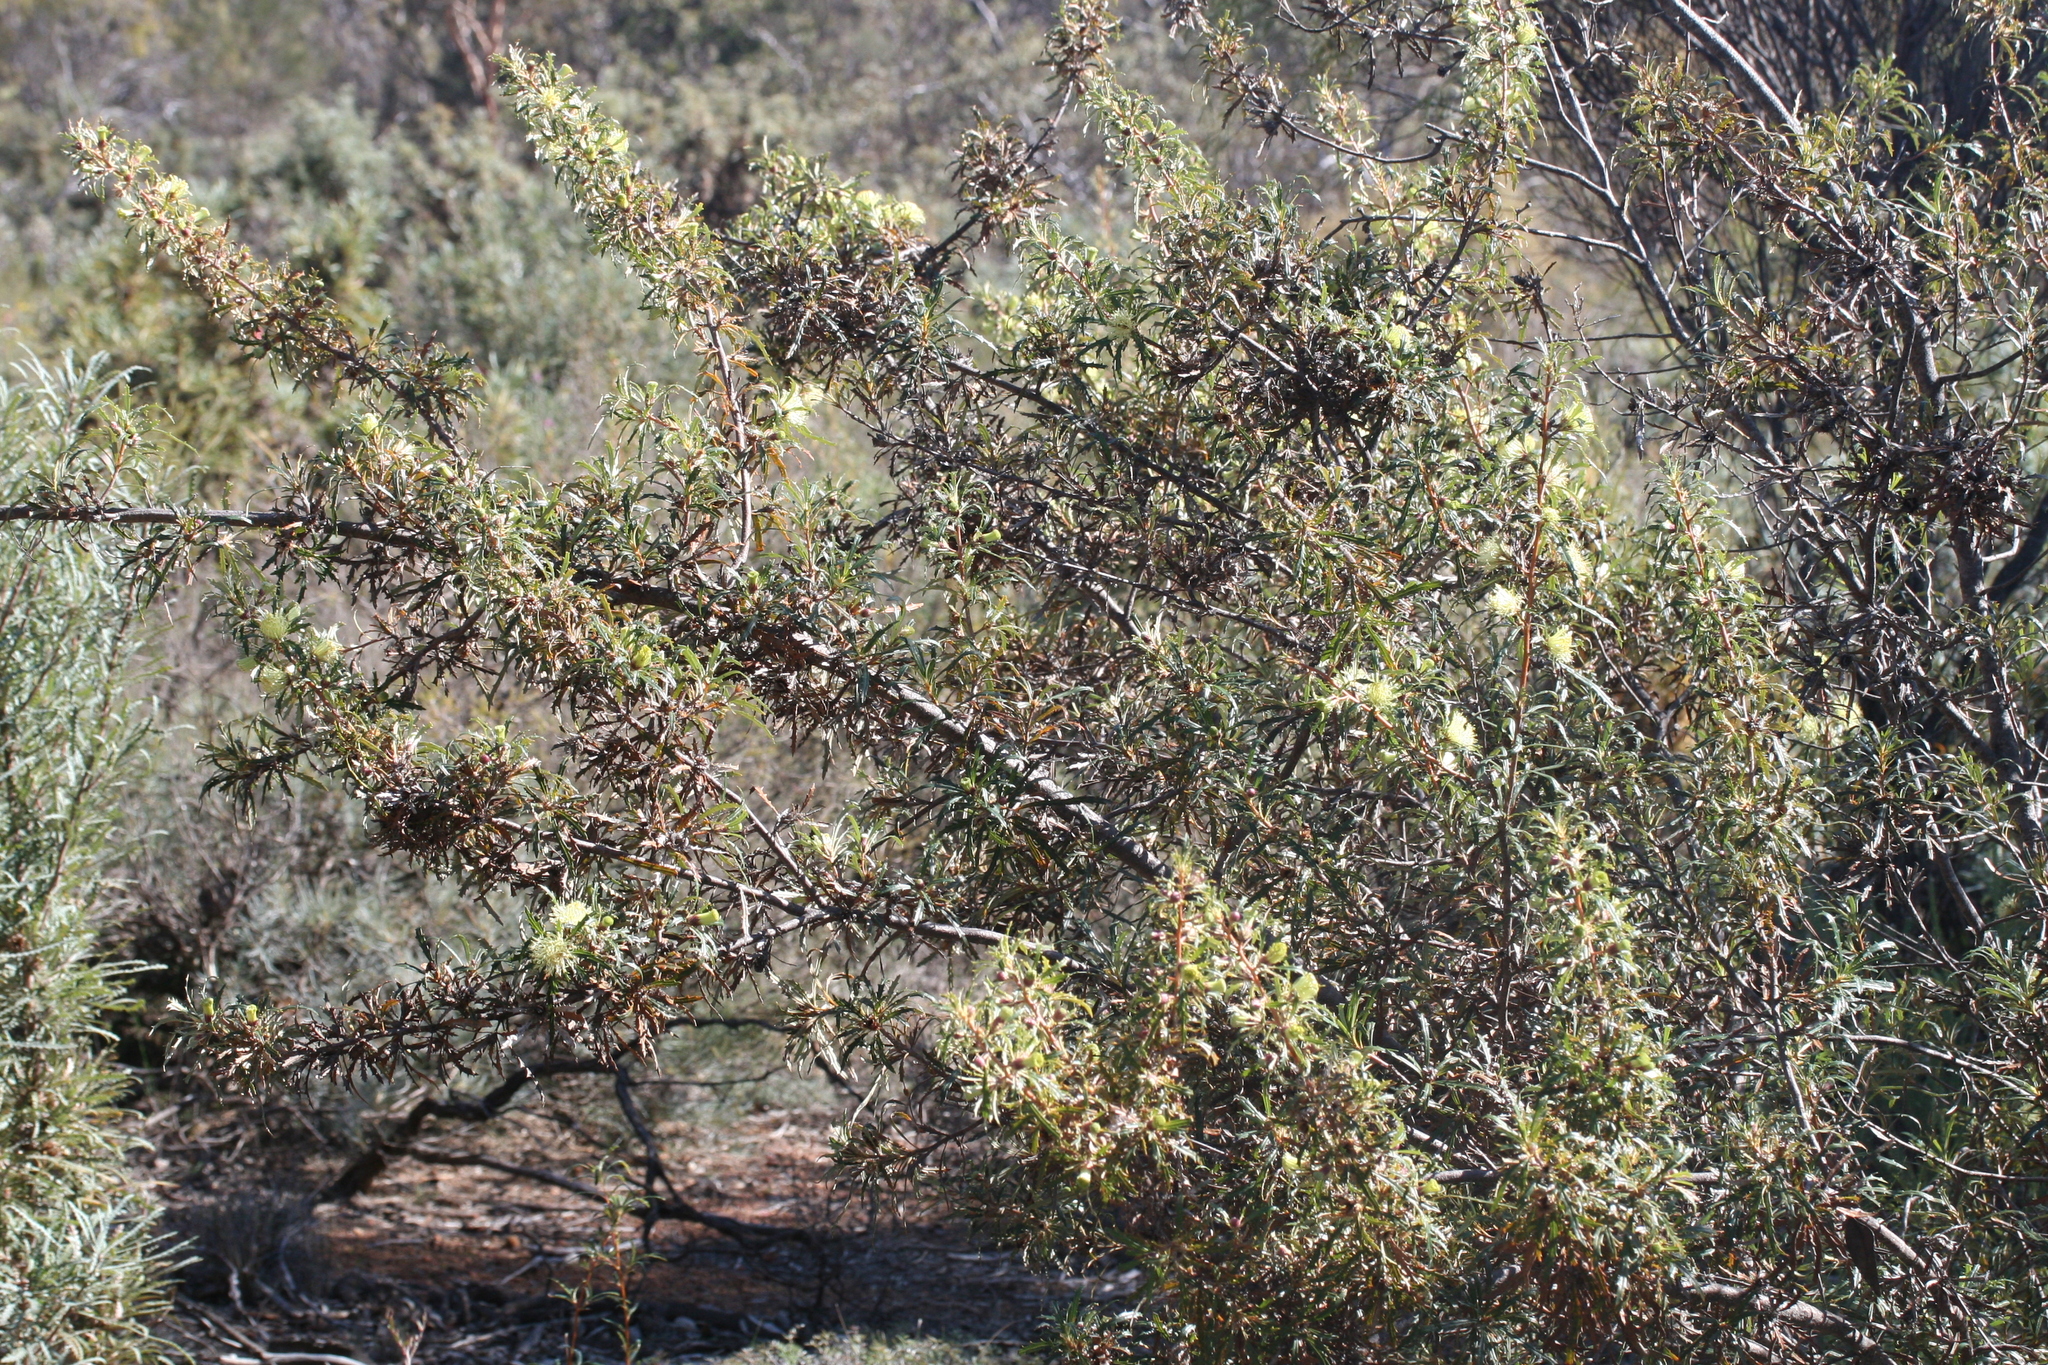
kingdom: Plantae
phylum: Tracheophyta
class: Magnoliopsida
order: Proteales
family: Proteaceae
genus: Banksia
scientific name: Banksia squarrosa
